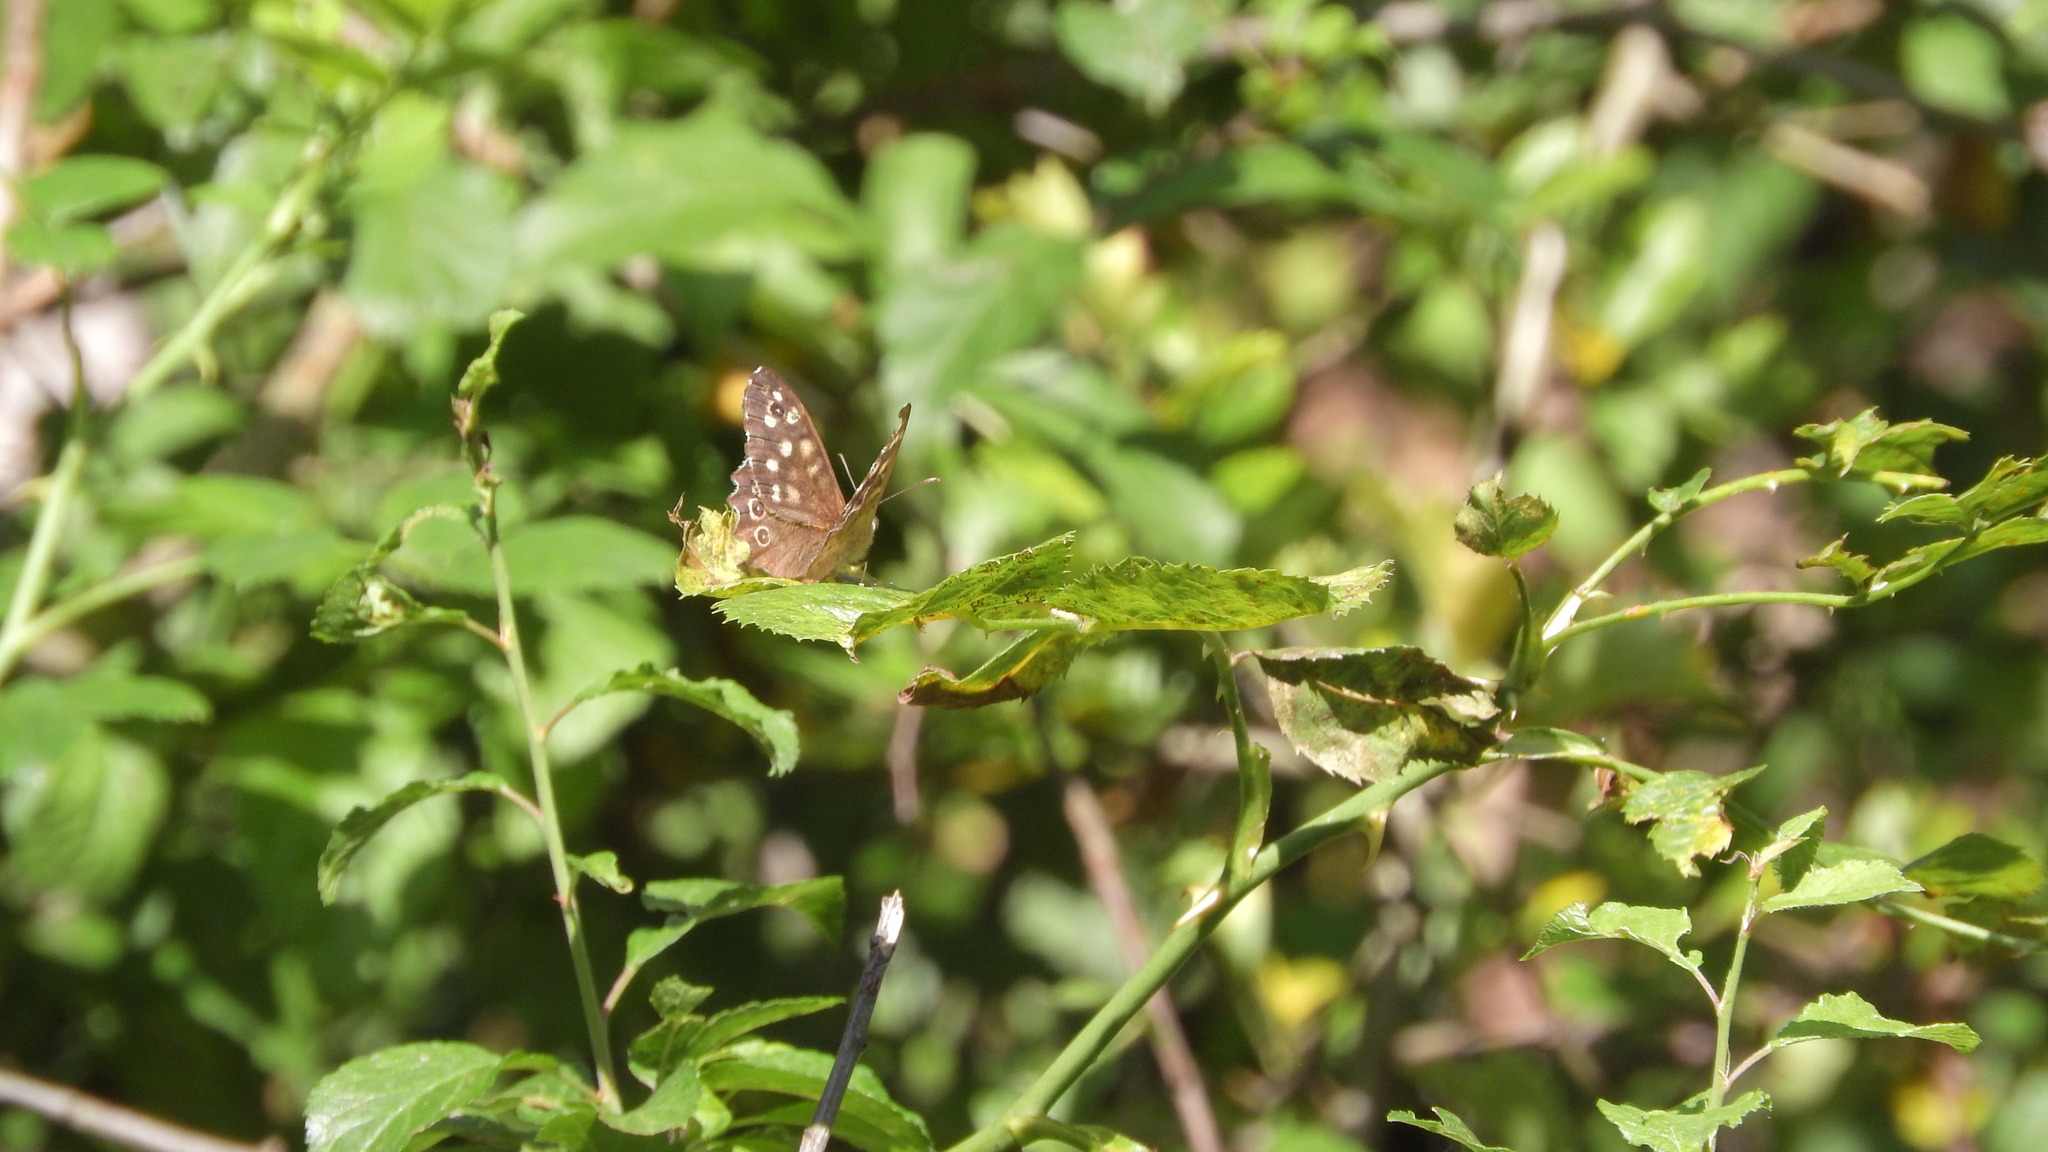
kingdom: Animalia
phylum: Arthropoda
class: Insecta
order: Lepidoptera
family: Nymphalidae
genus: Pararge
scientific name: Pararge aegeria
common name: Speckled wood
